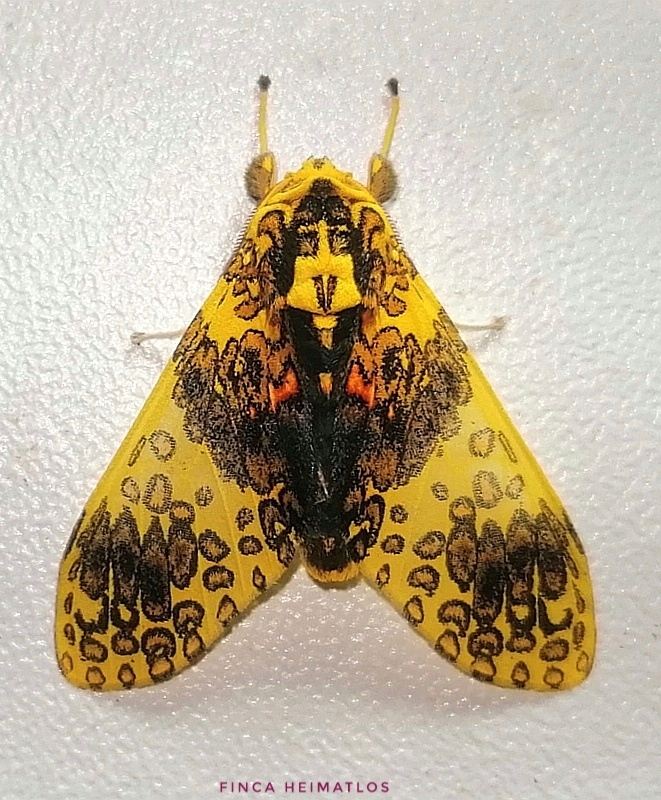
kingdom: Animalia
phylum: Arthropoda
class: Insecta
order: Lepidoptera
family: Erebidae
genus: Amaxia
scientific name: Amaxia violacea
